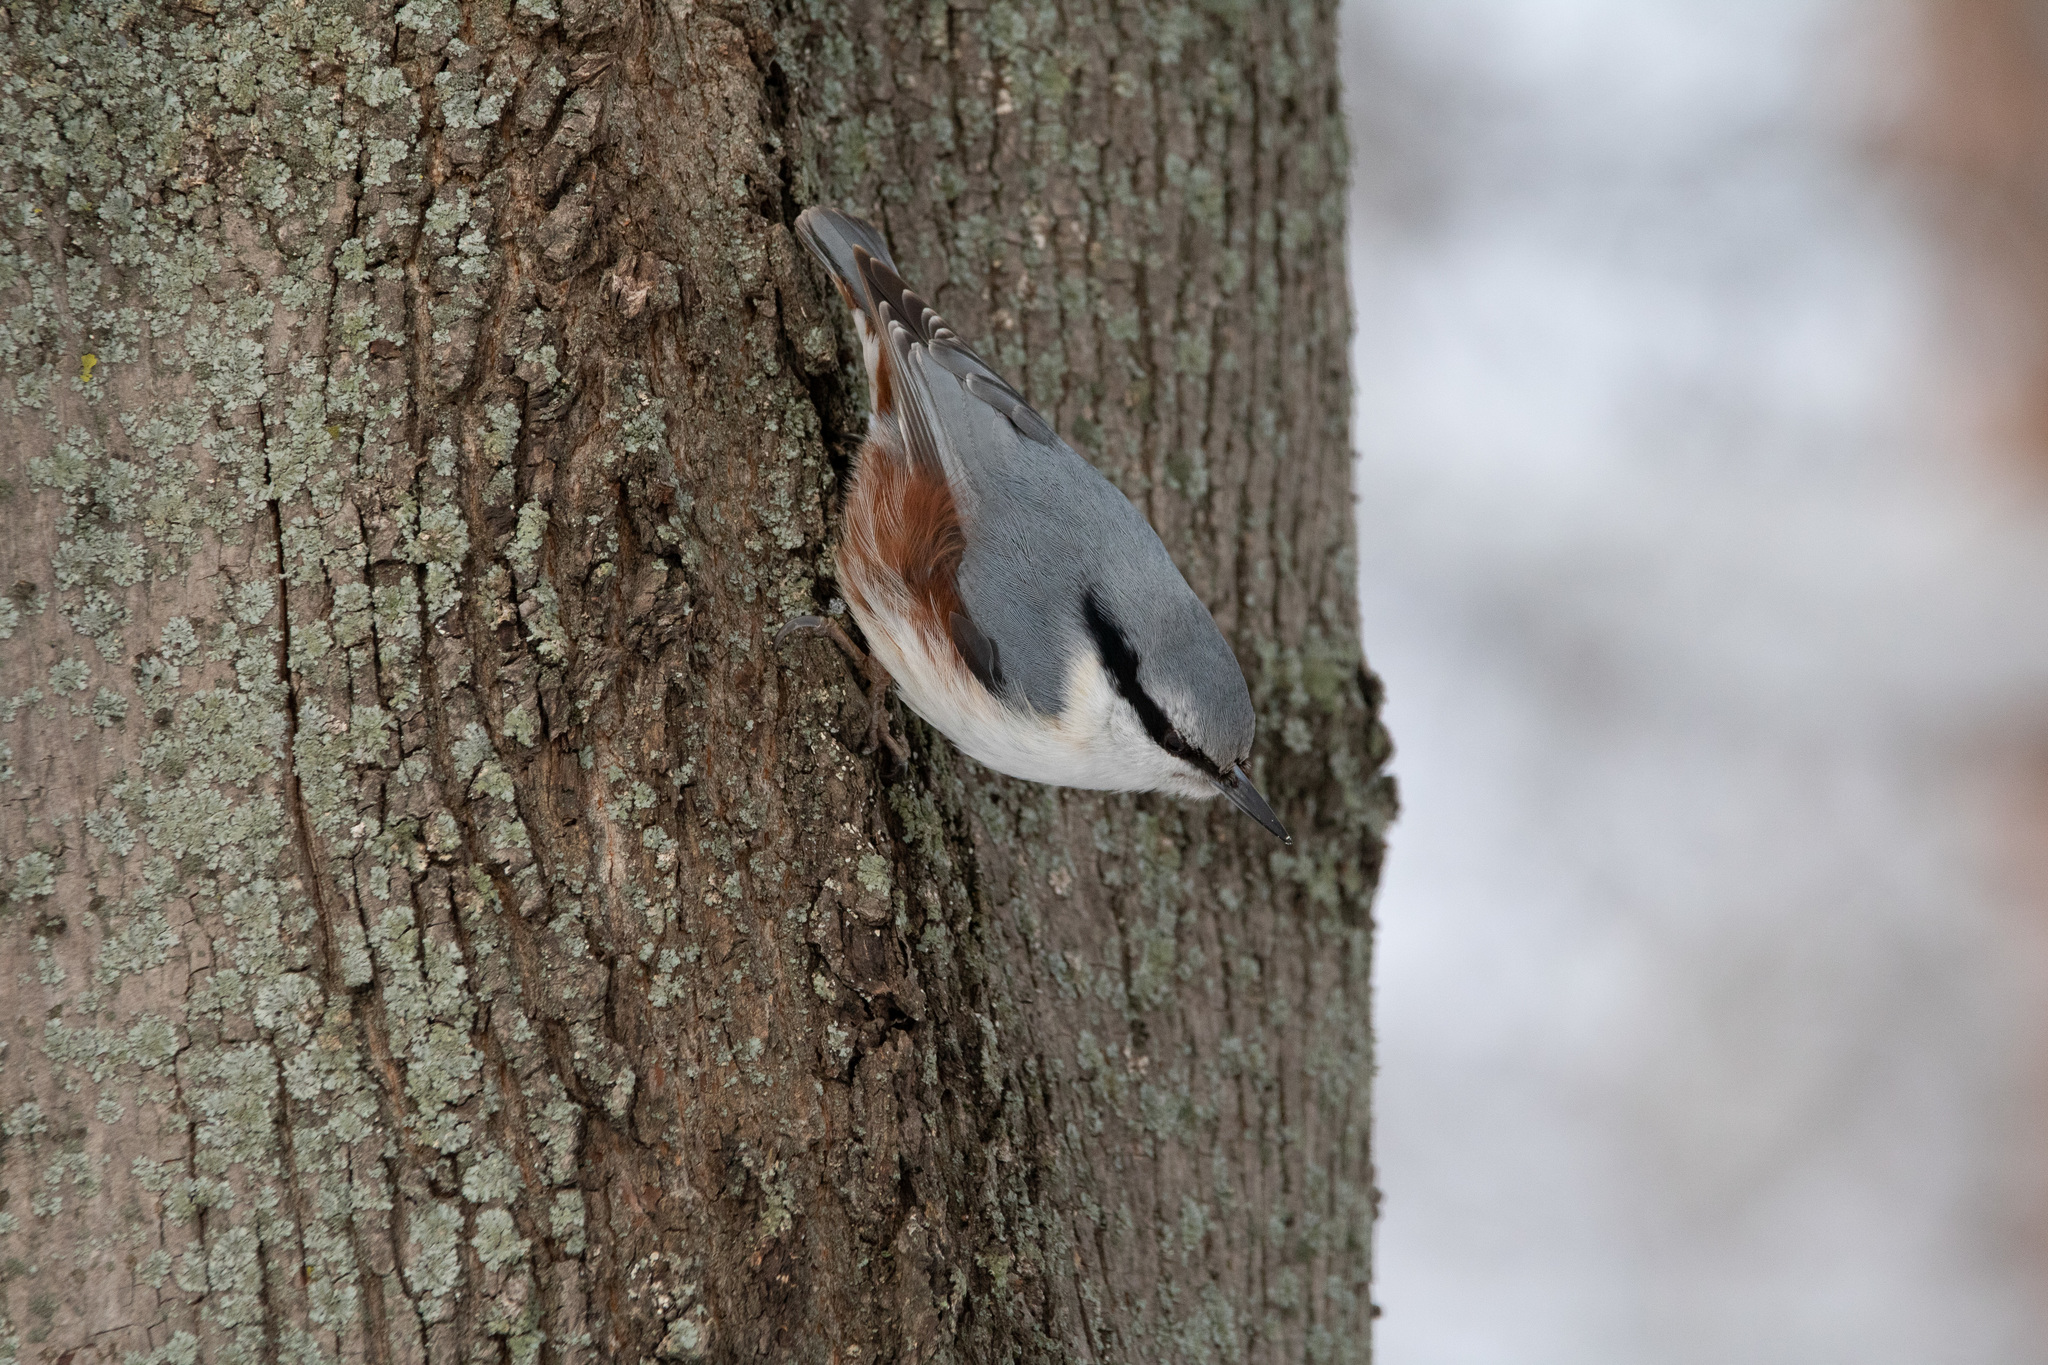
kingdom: Animalia
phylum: Chordata
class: Aves
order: Passeriformes
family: Sittidae
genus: Sitta
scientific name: Sitta europaea
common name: Eurasian nuthatch
